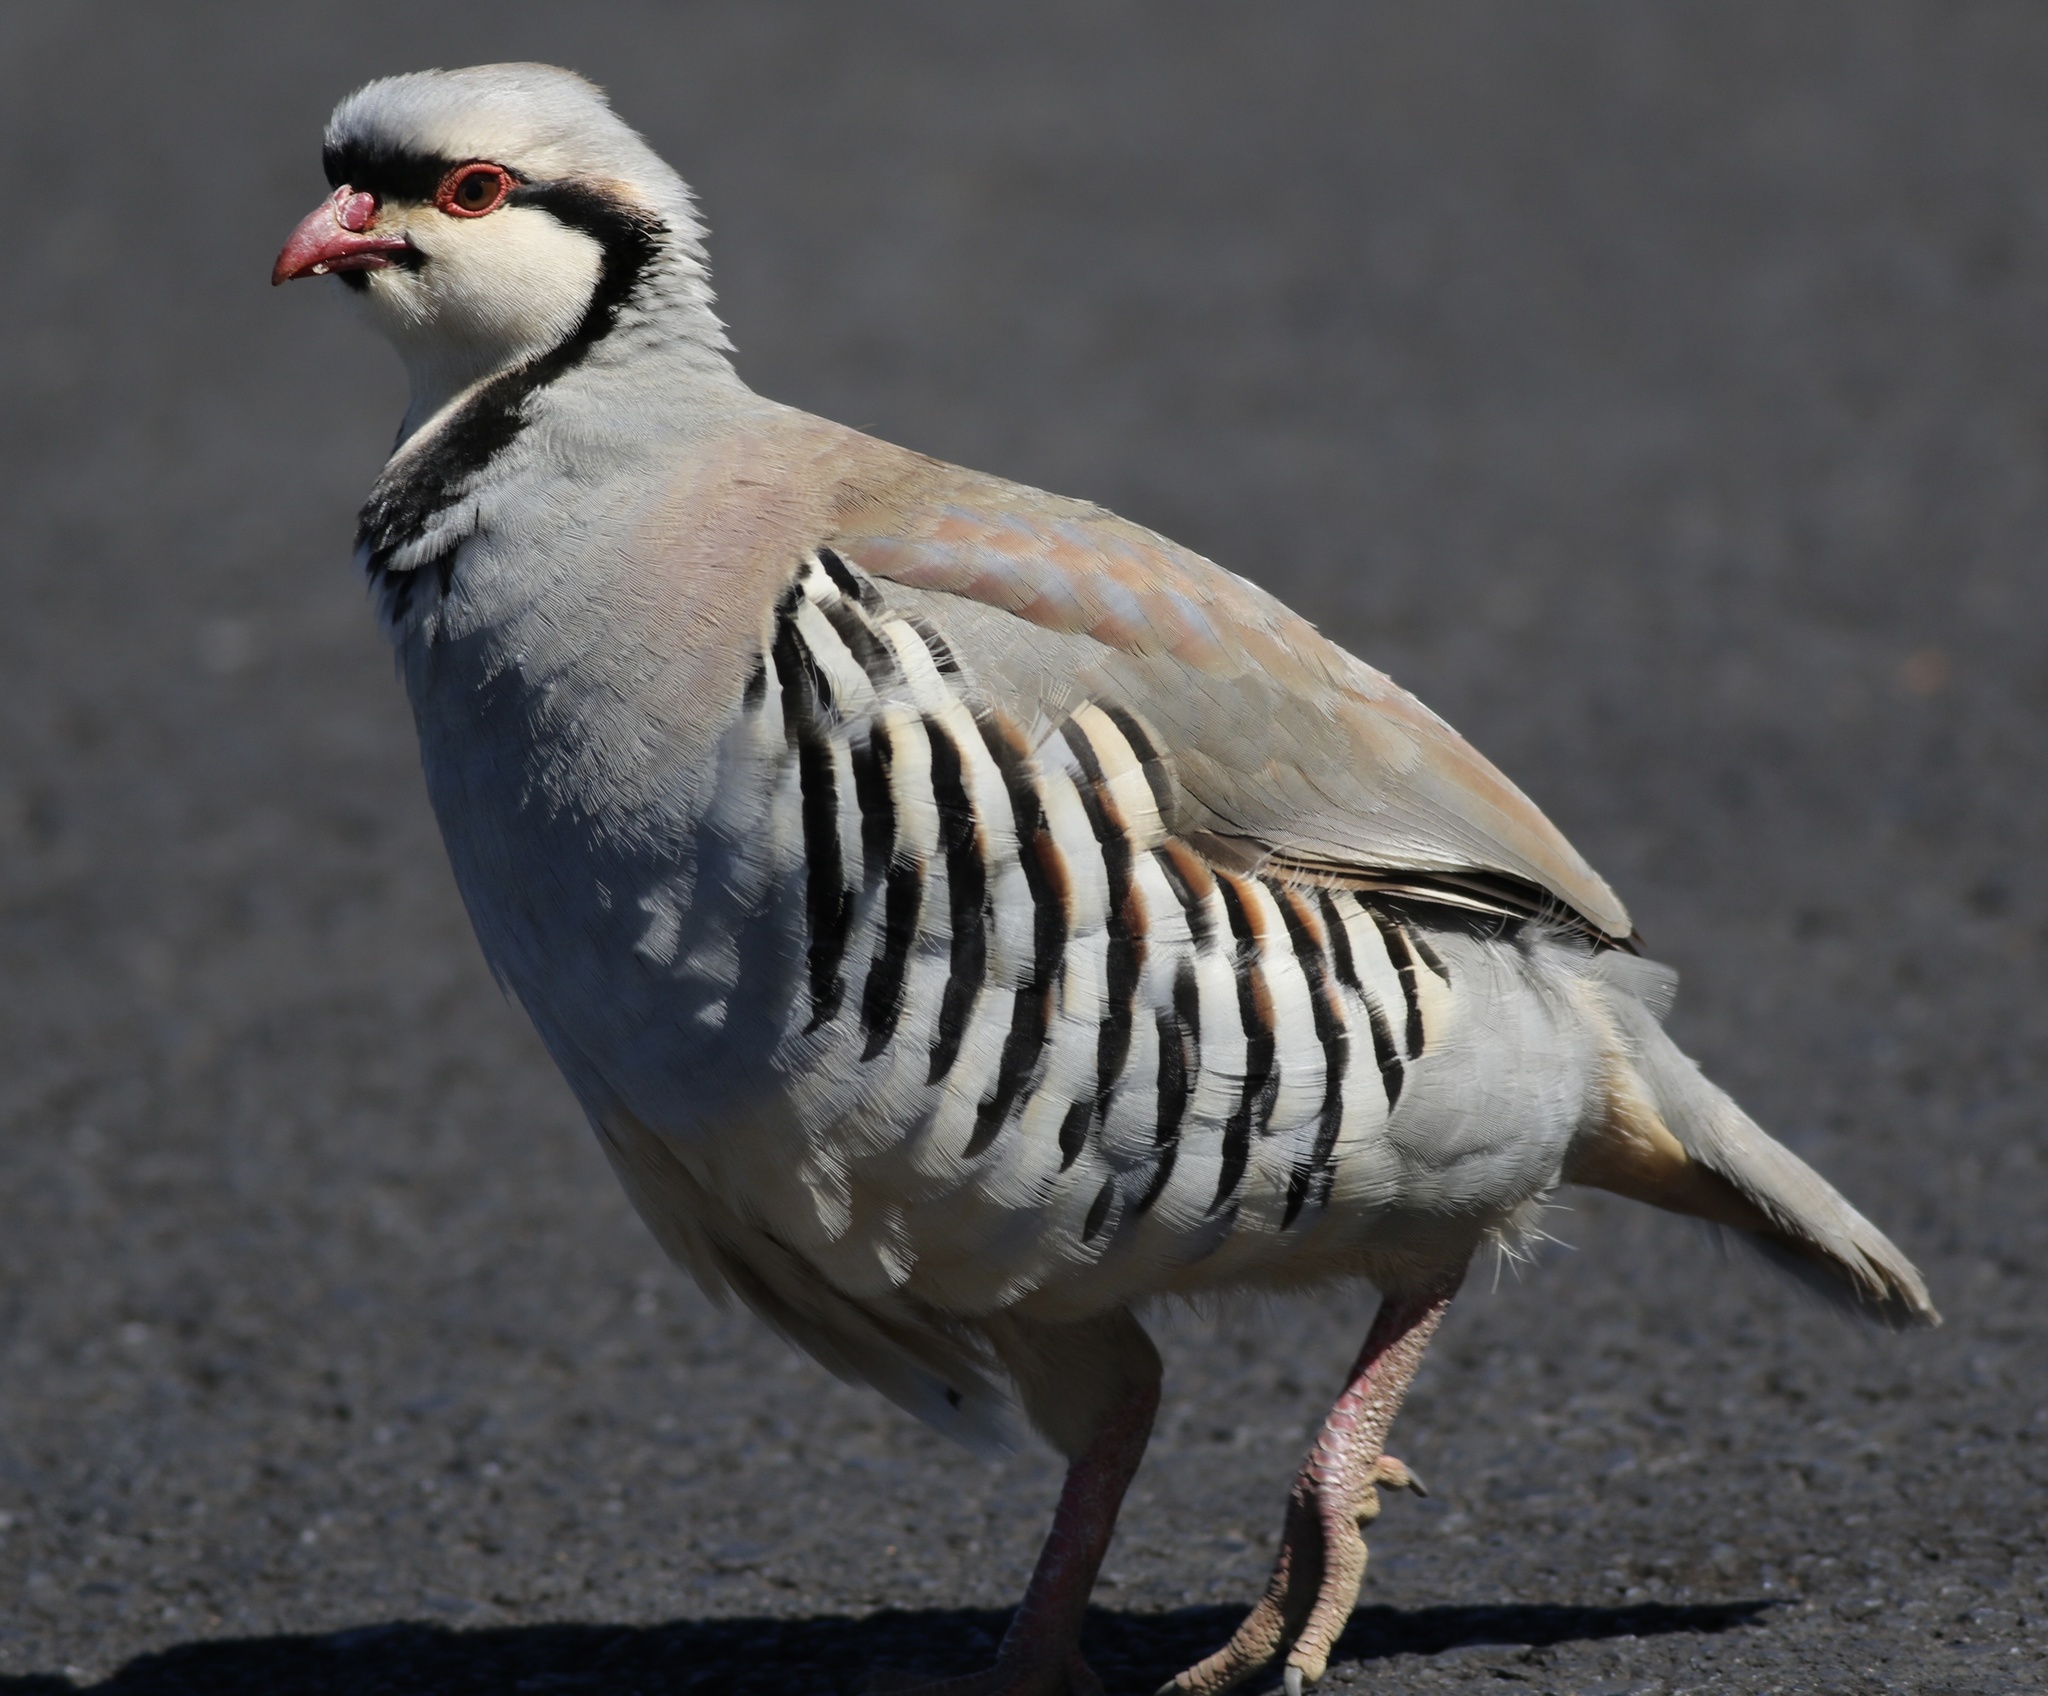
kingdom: Animalia
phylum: Chordata
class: Aves
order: Galliformes
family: Phasianidae
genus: Alectoris
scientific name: Alectoris chukar
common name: Chukar
